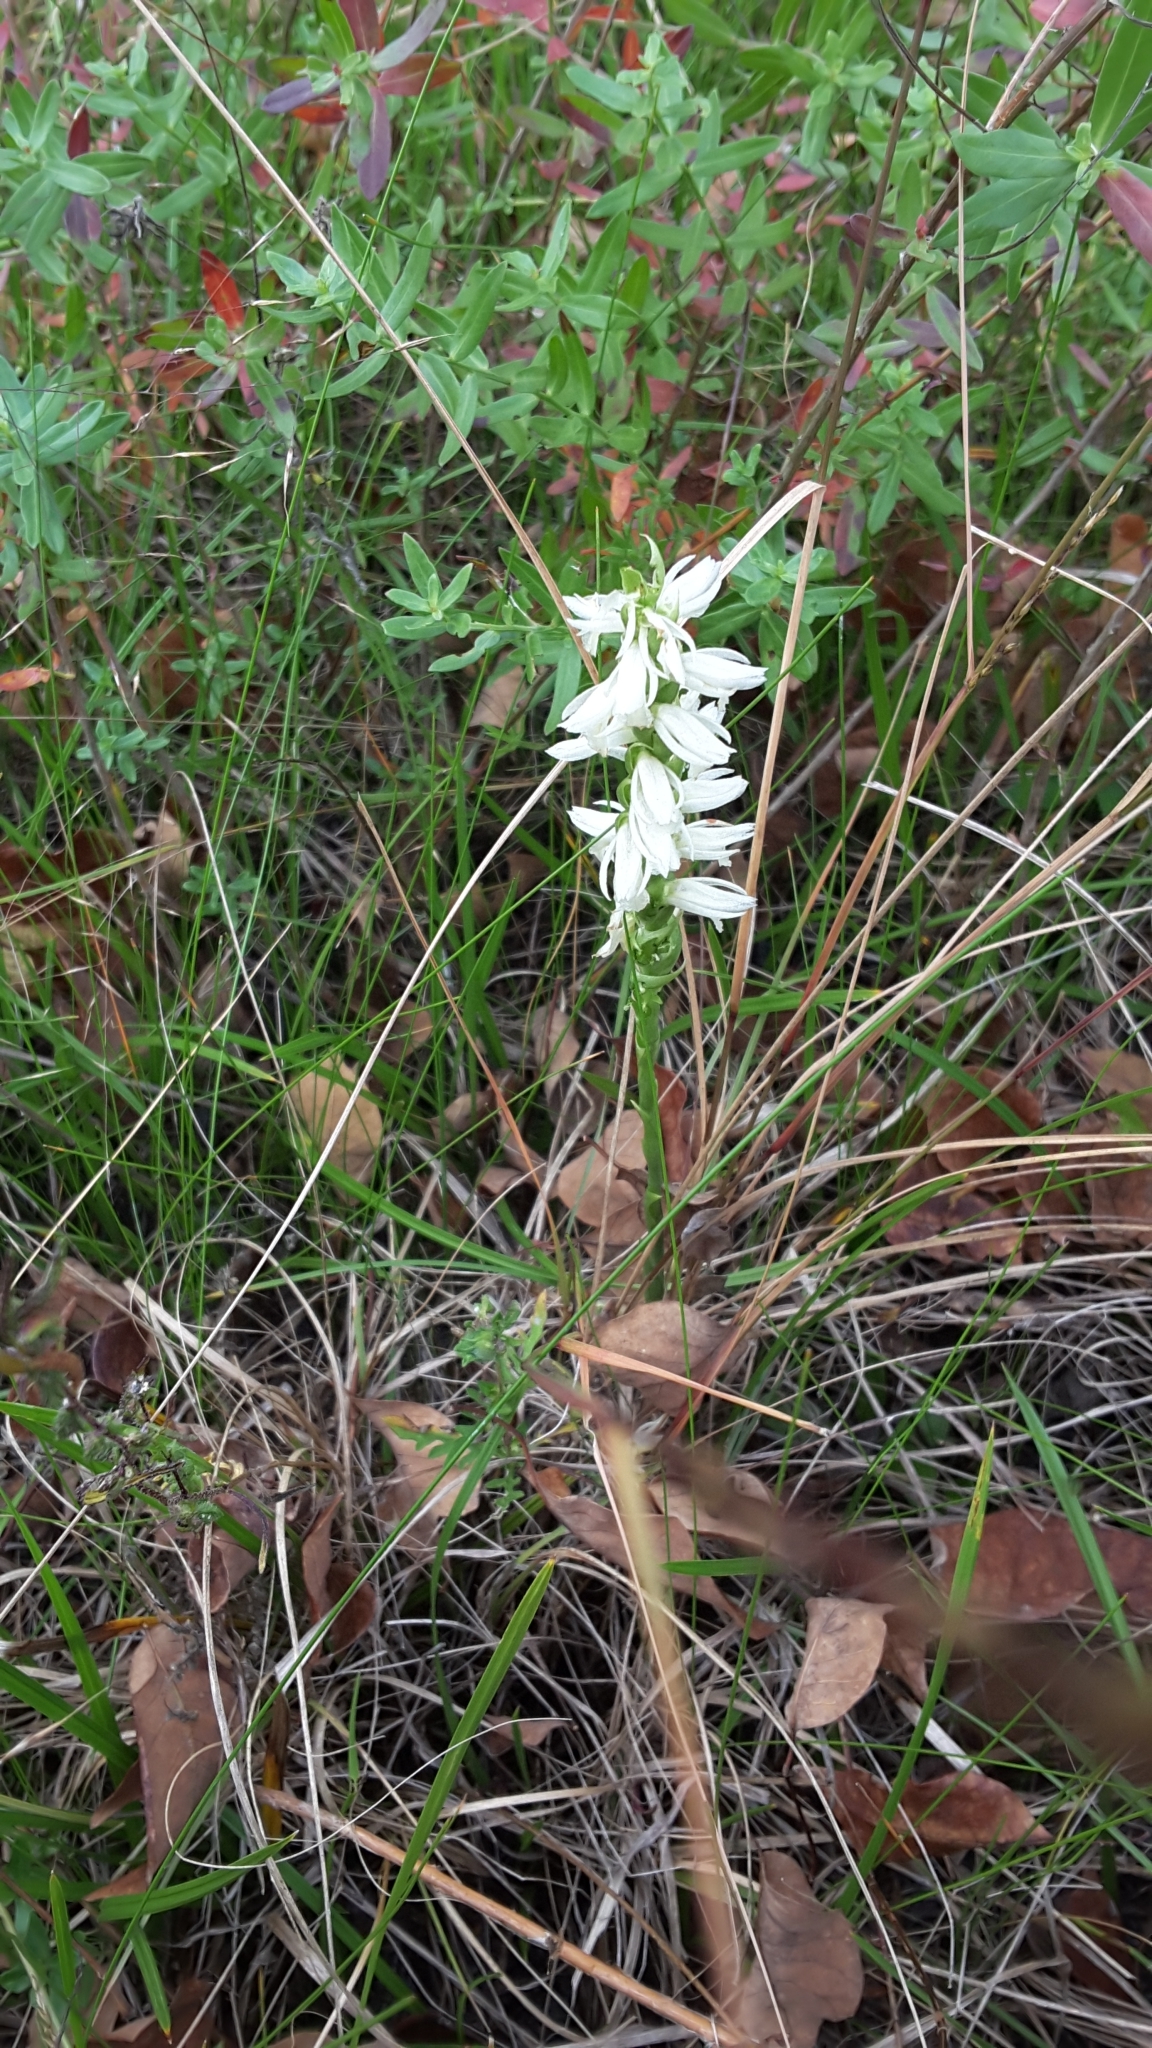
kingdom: Plantae
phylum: Tracheophyta
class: Liliopsida
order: Asparagales
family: Orchidaceae
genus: Spiranthes
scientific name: Spiranthes magnicamporum
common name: Great plains ladies'-tresses
